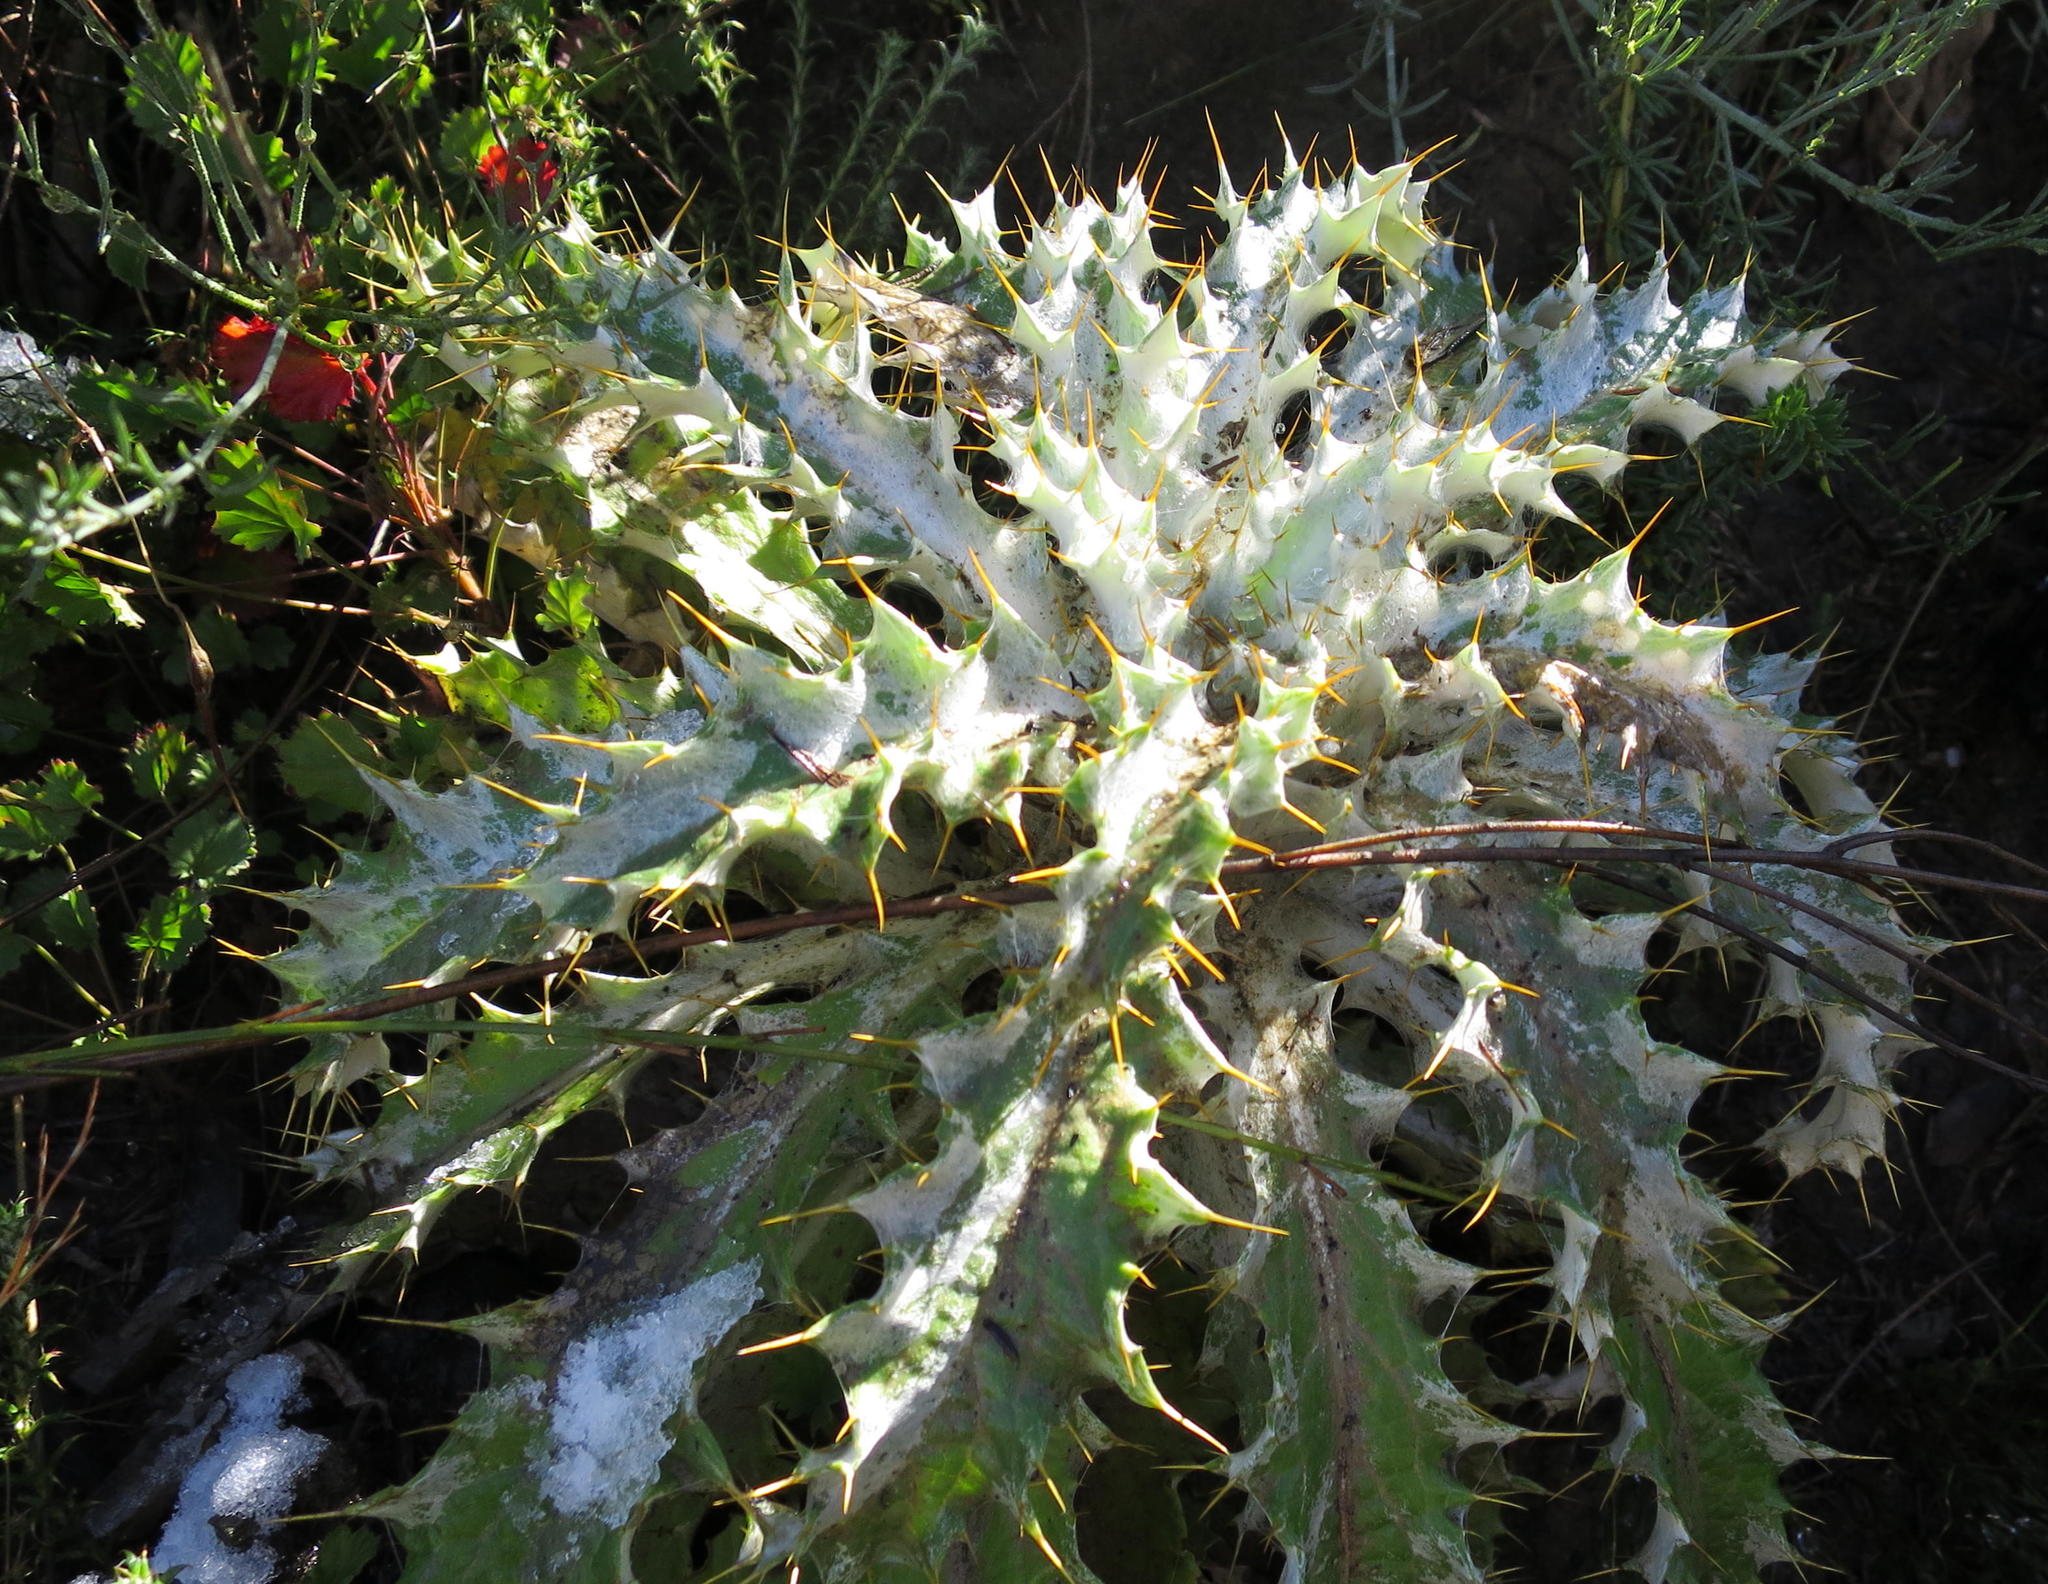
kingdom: Plantae
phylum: Tracheophyta
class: Magnoliopsida
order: Asterales
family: Asteraceae
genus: Berkheya
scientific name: Berkheya francisci
